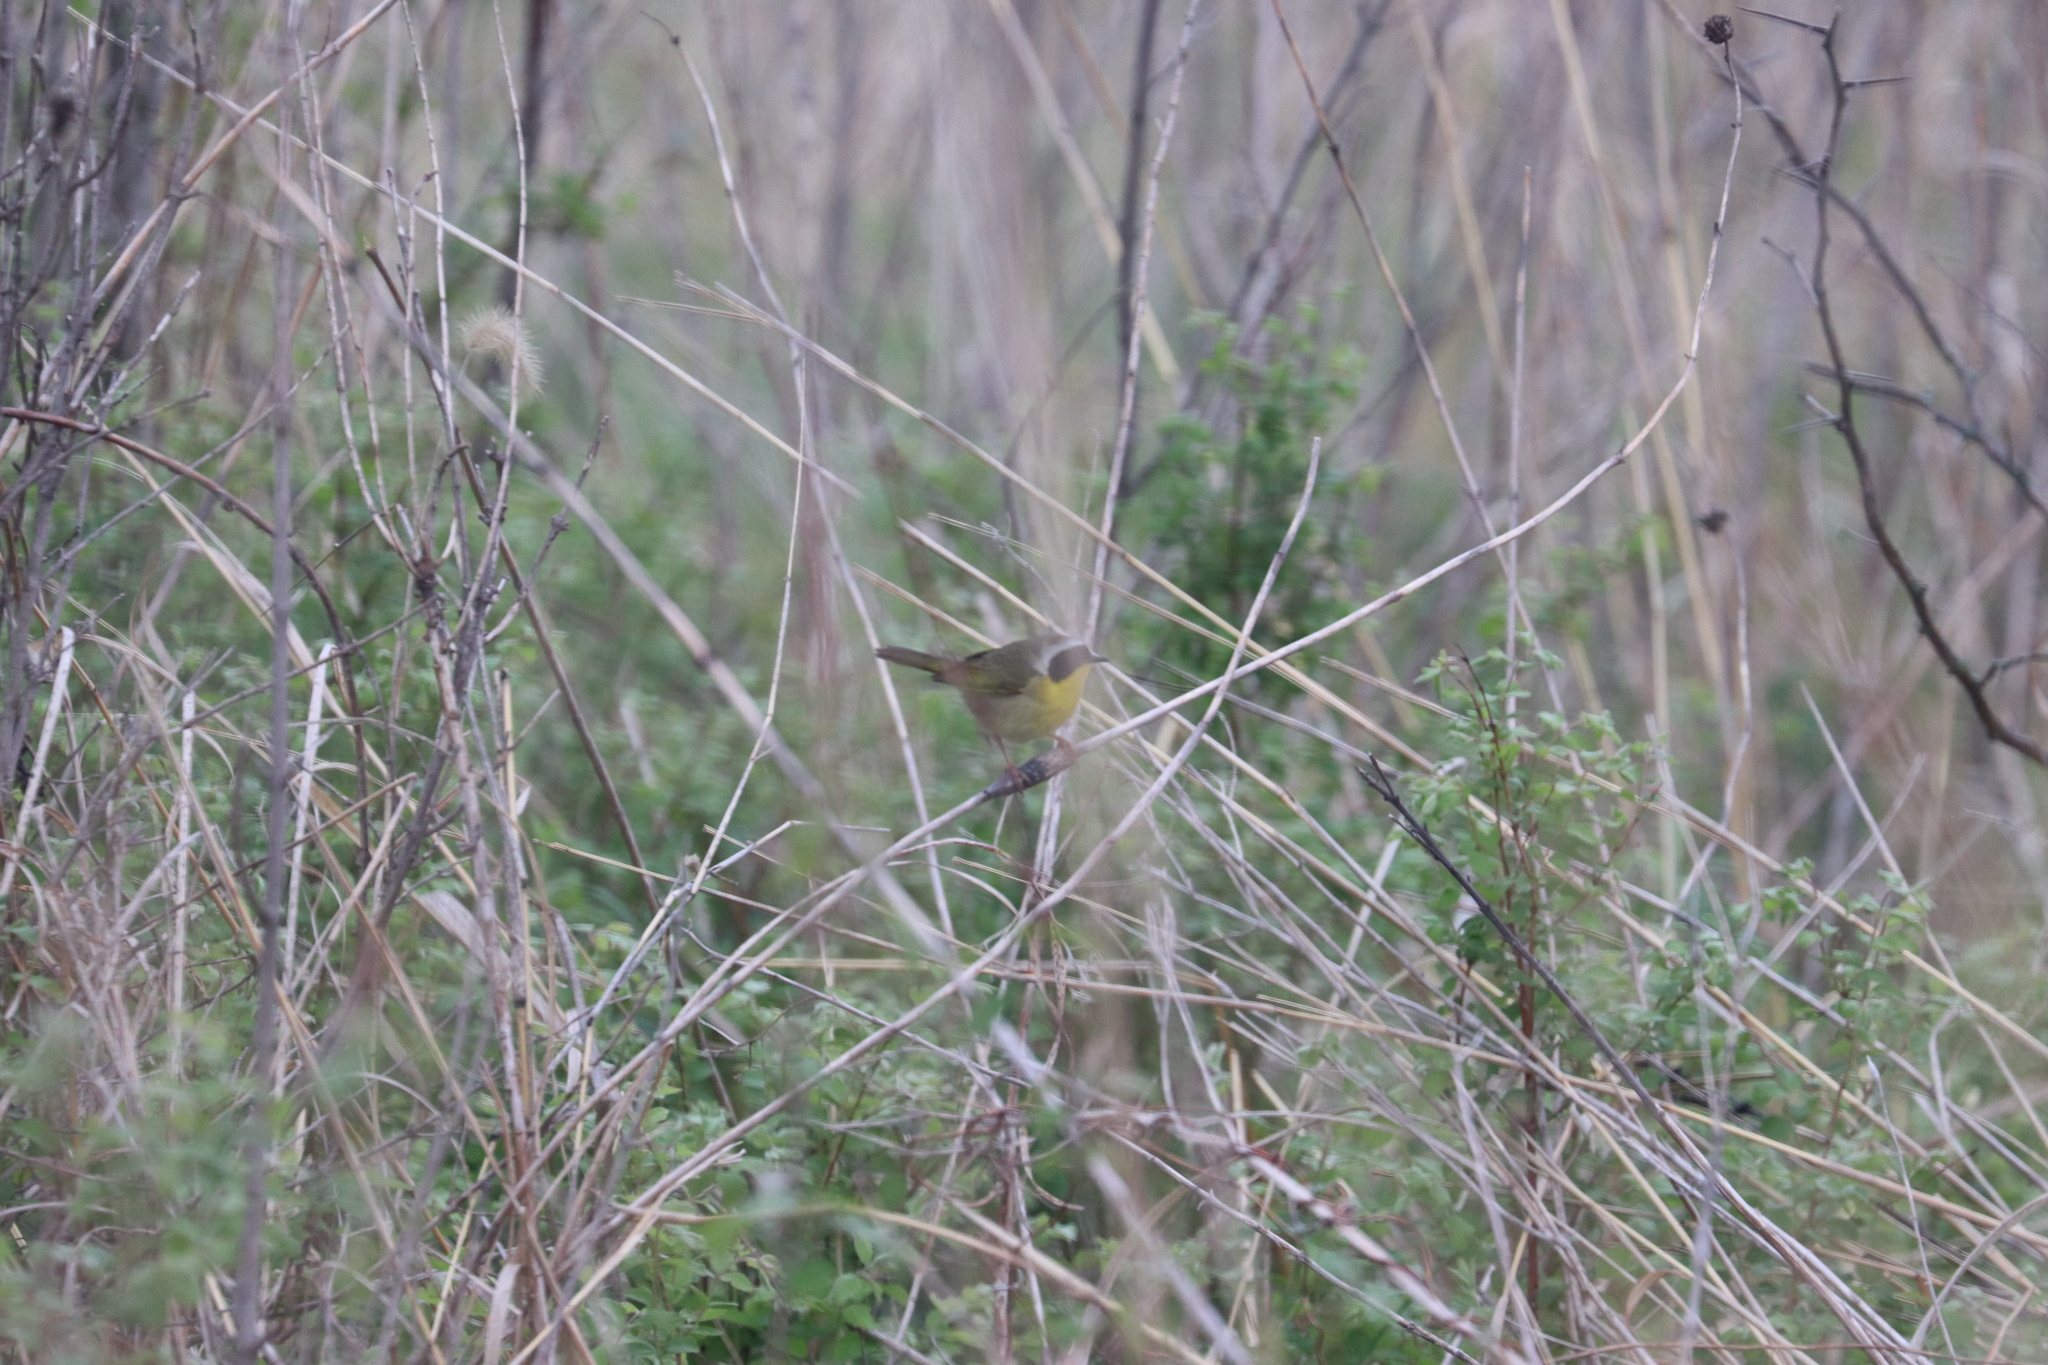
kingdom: Animalia
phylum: Chordata
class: Aves
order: Passeriformes
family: Parulidae
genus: Geothlypis
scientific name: Geothlypis trichas
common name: Common yellowthroat
